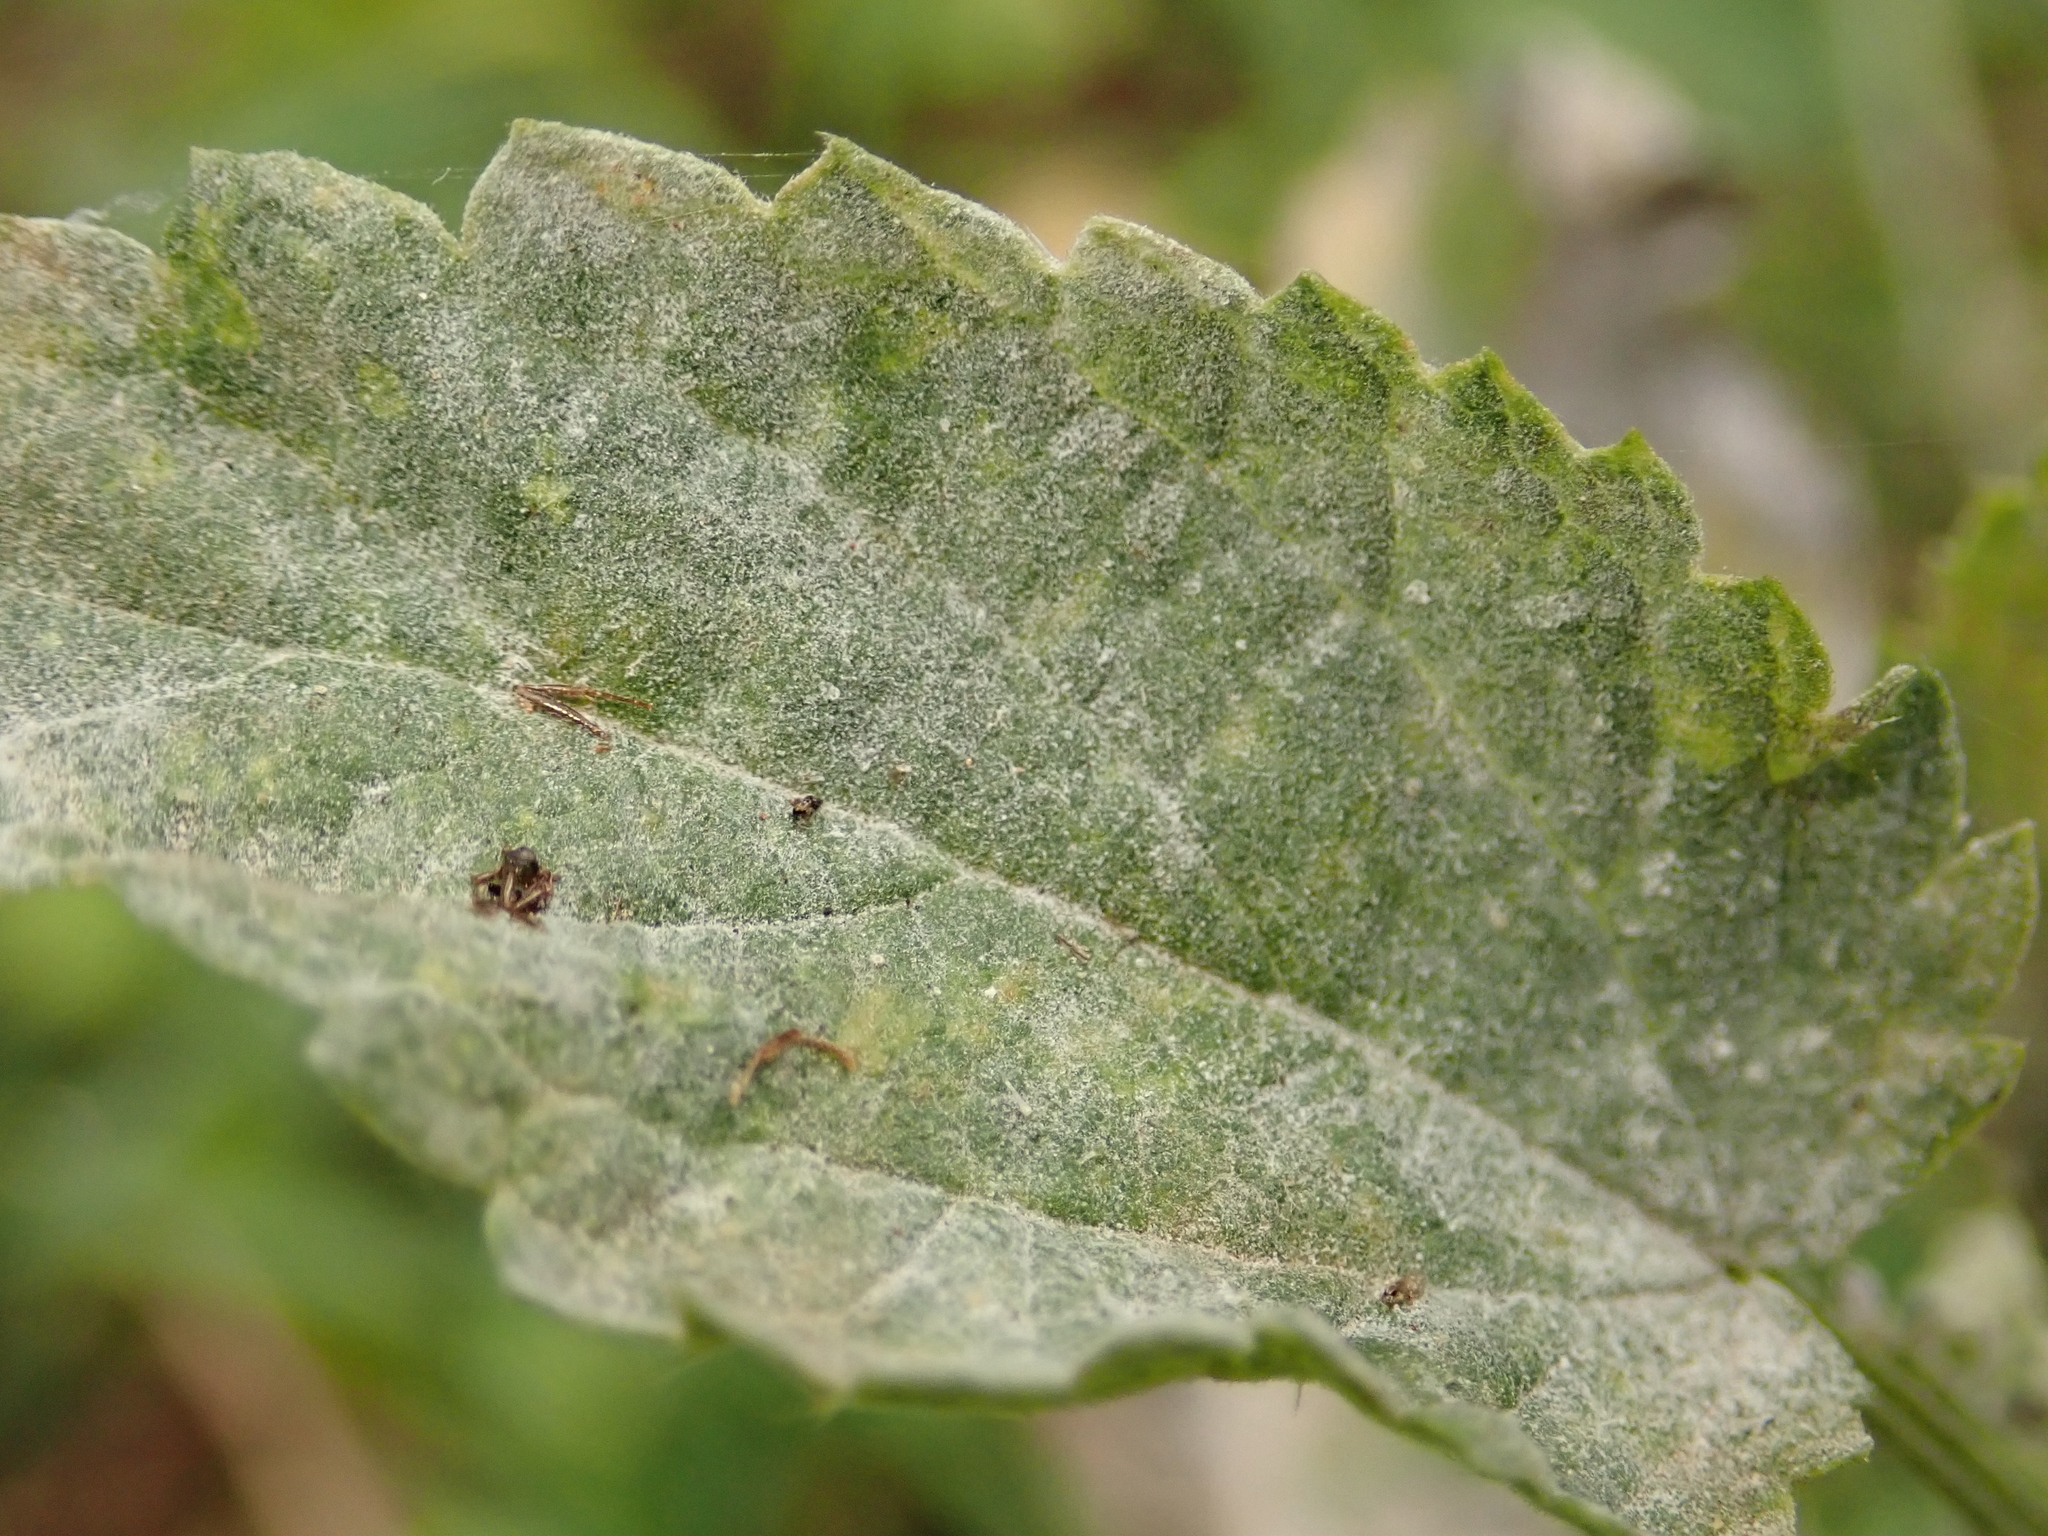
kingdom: Fungi
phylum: Ascomycota
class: Leotiomycetes
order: Helotiales
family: Erysiphaceae
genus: Erysiphe
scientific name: Erysiphe urticae
